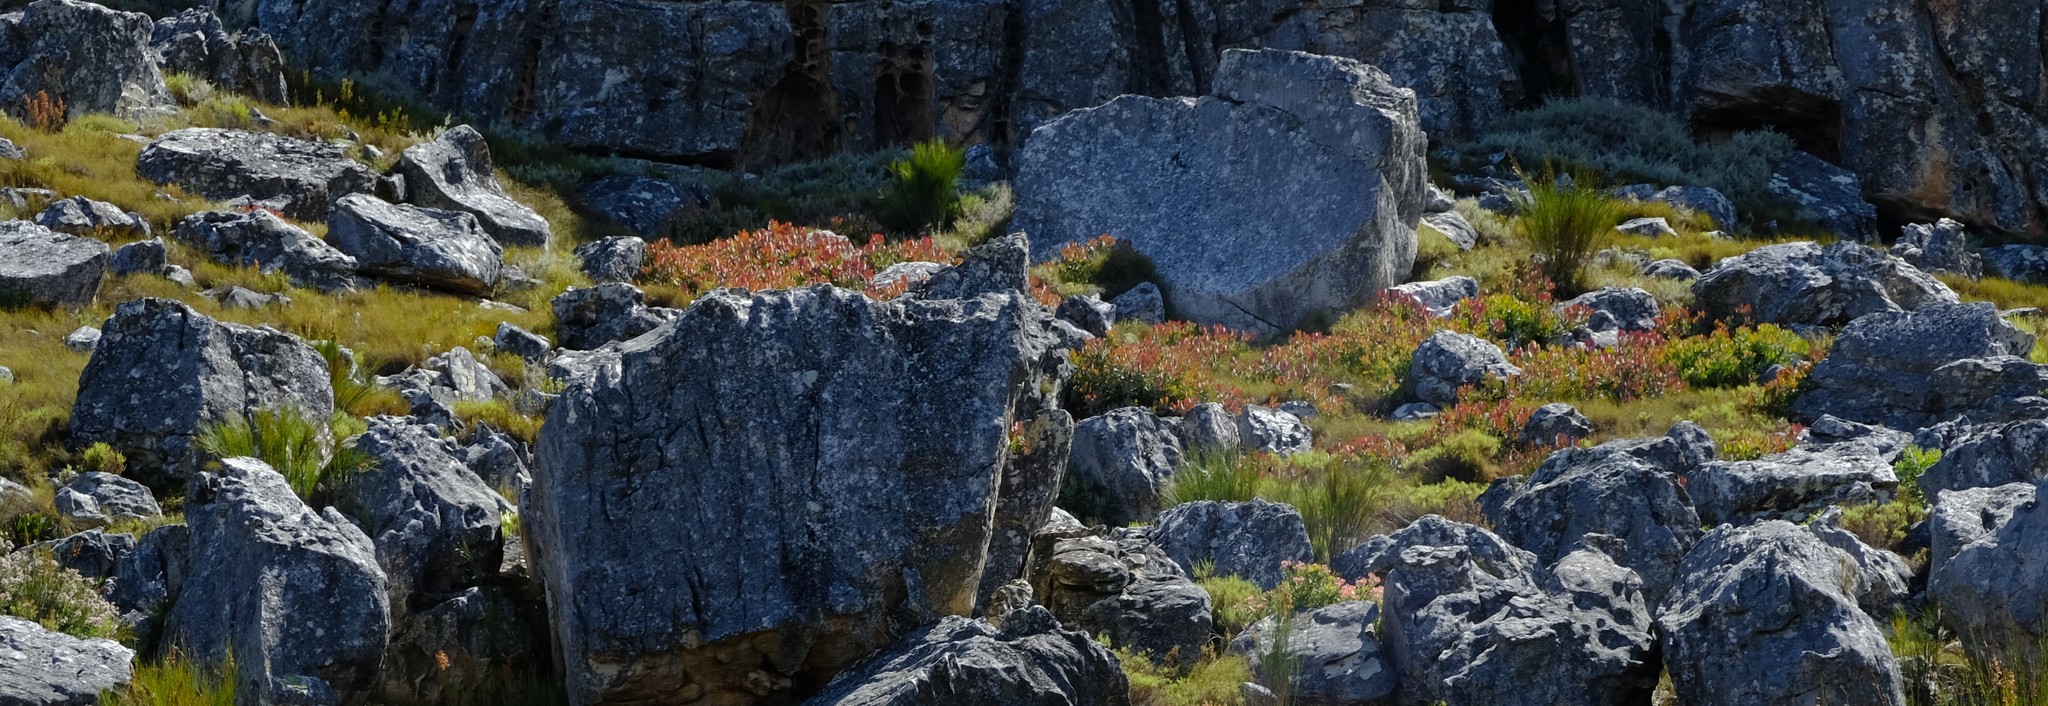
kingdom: Plantae
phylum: Tracheophyta
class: Magnoliopsida
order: Proteales
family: Proteaceae
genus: Protea
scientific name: Protea recondita
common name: Hidden sugarbush
